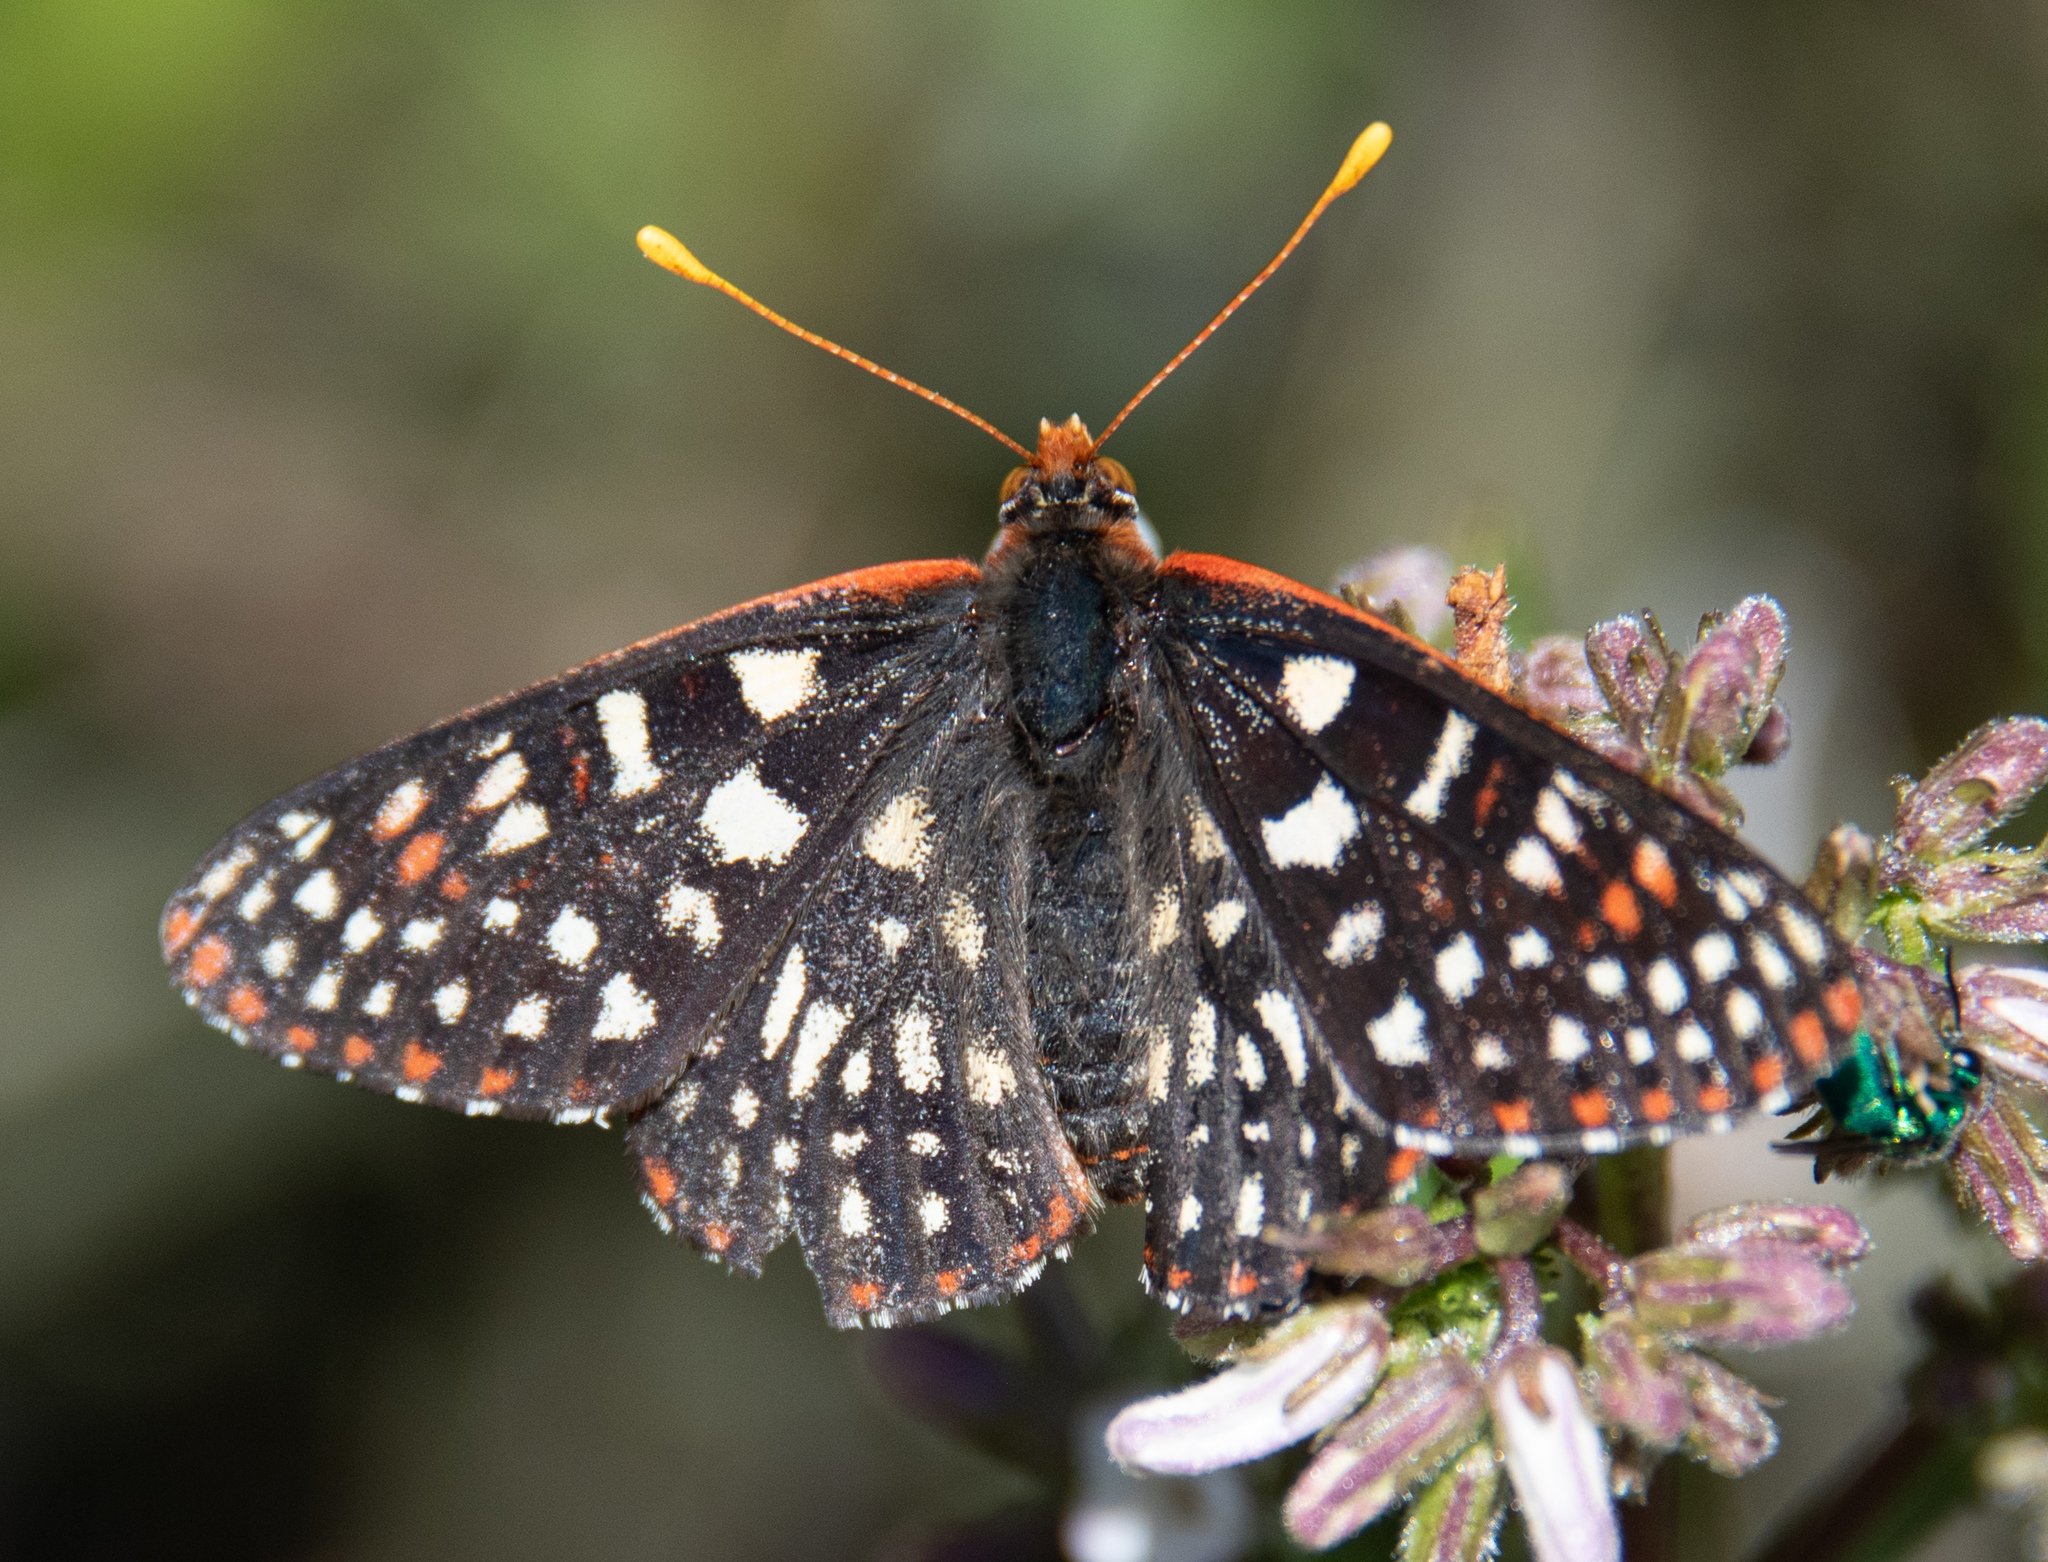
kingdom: Animalia
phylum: Arthropoda
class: Insecta
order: Lepidoptera
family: Nymphalidae
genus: Occidryas
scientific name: Occidryas chalcedona
